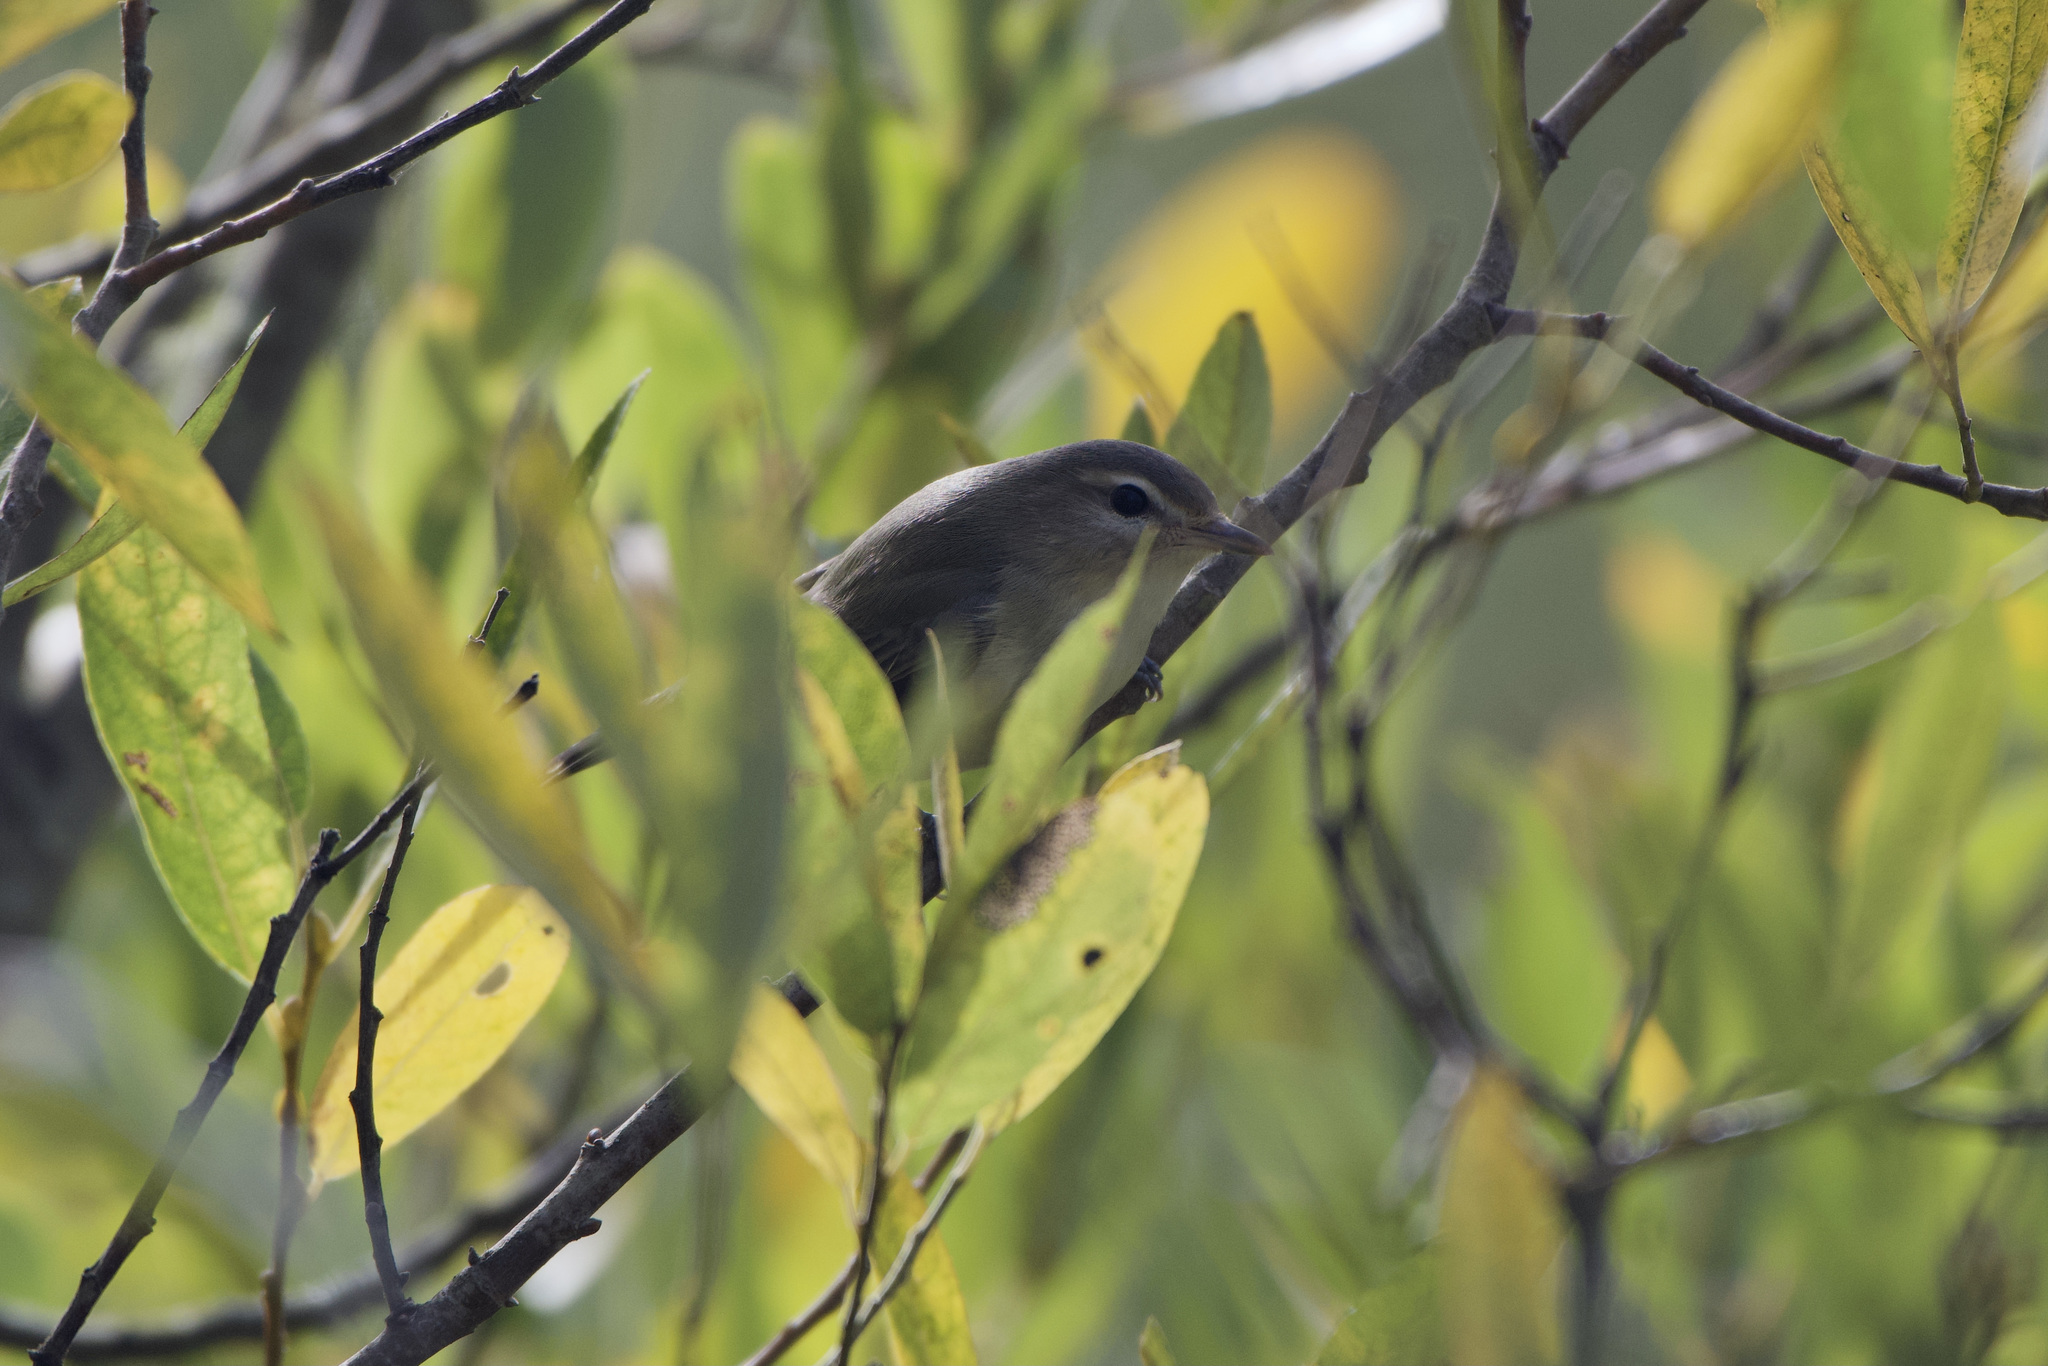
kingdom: Animalia
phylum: Chordata
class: Aves
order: Passeriformes
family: Vireonidae
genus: Vireo
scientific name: Vireo gilvus
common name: Warbling vireo
